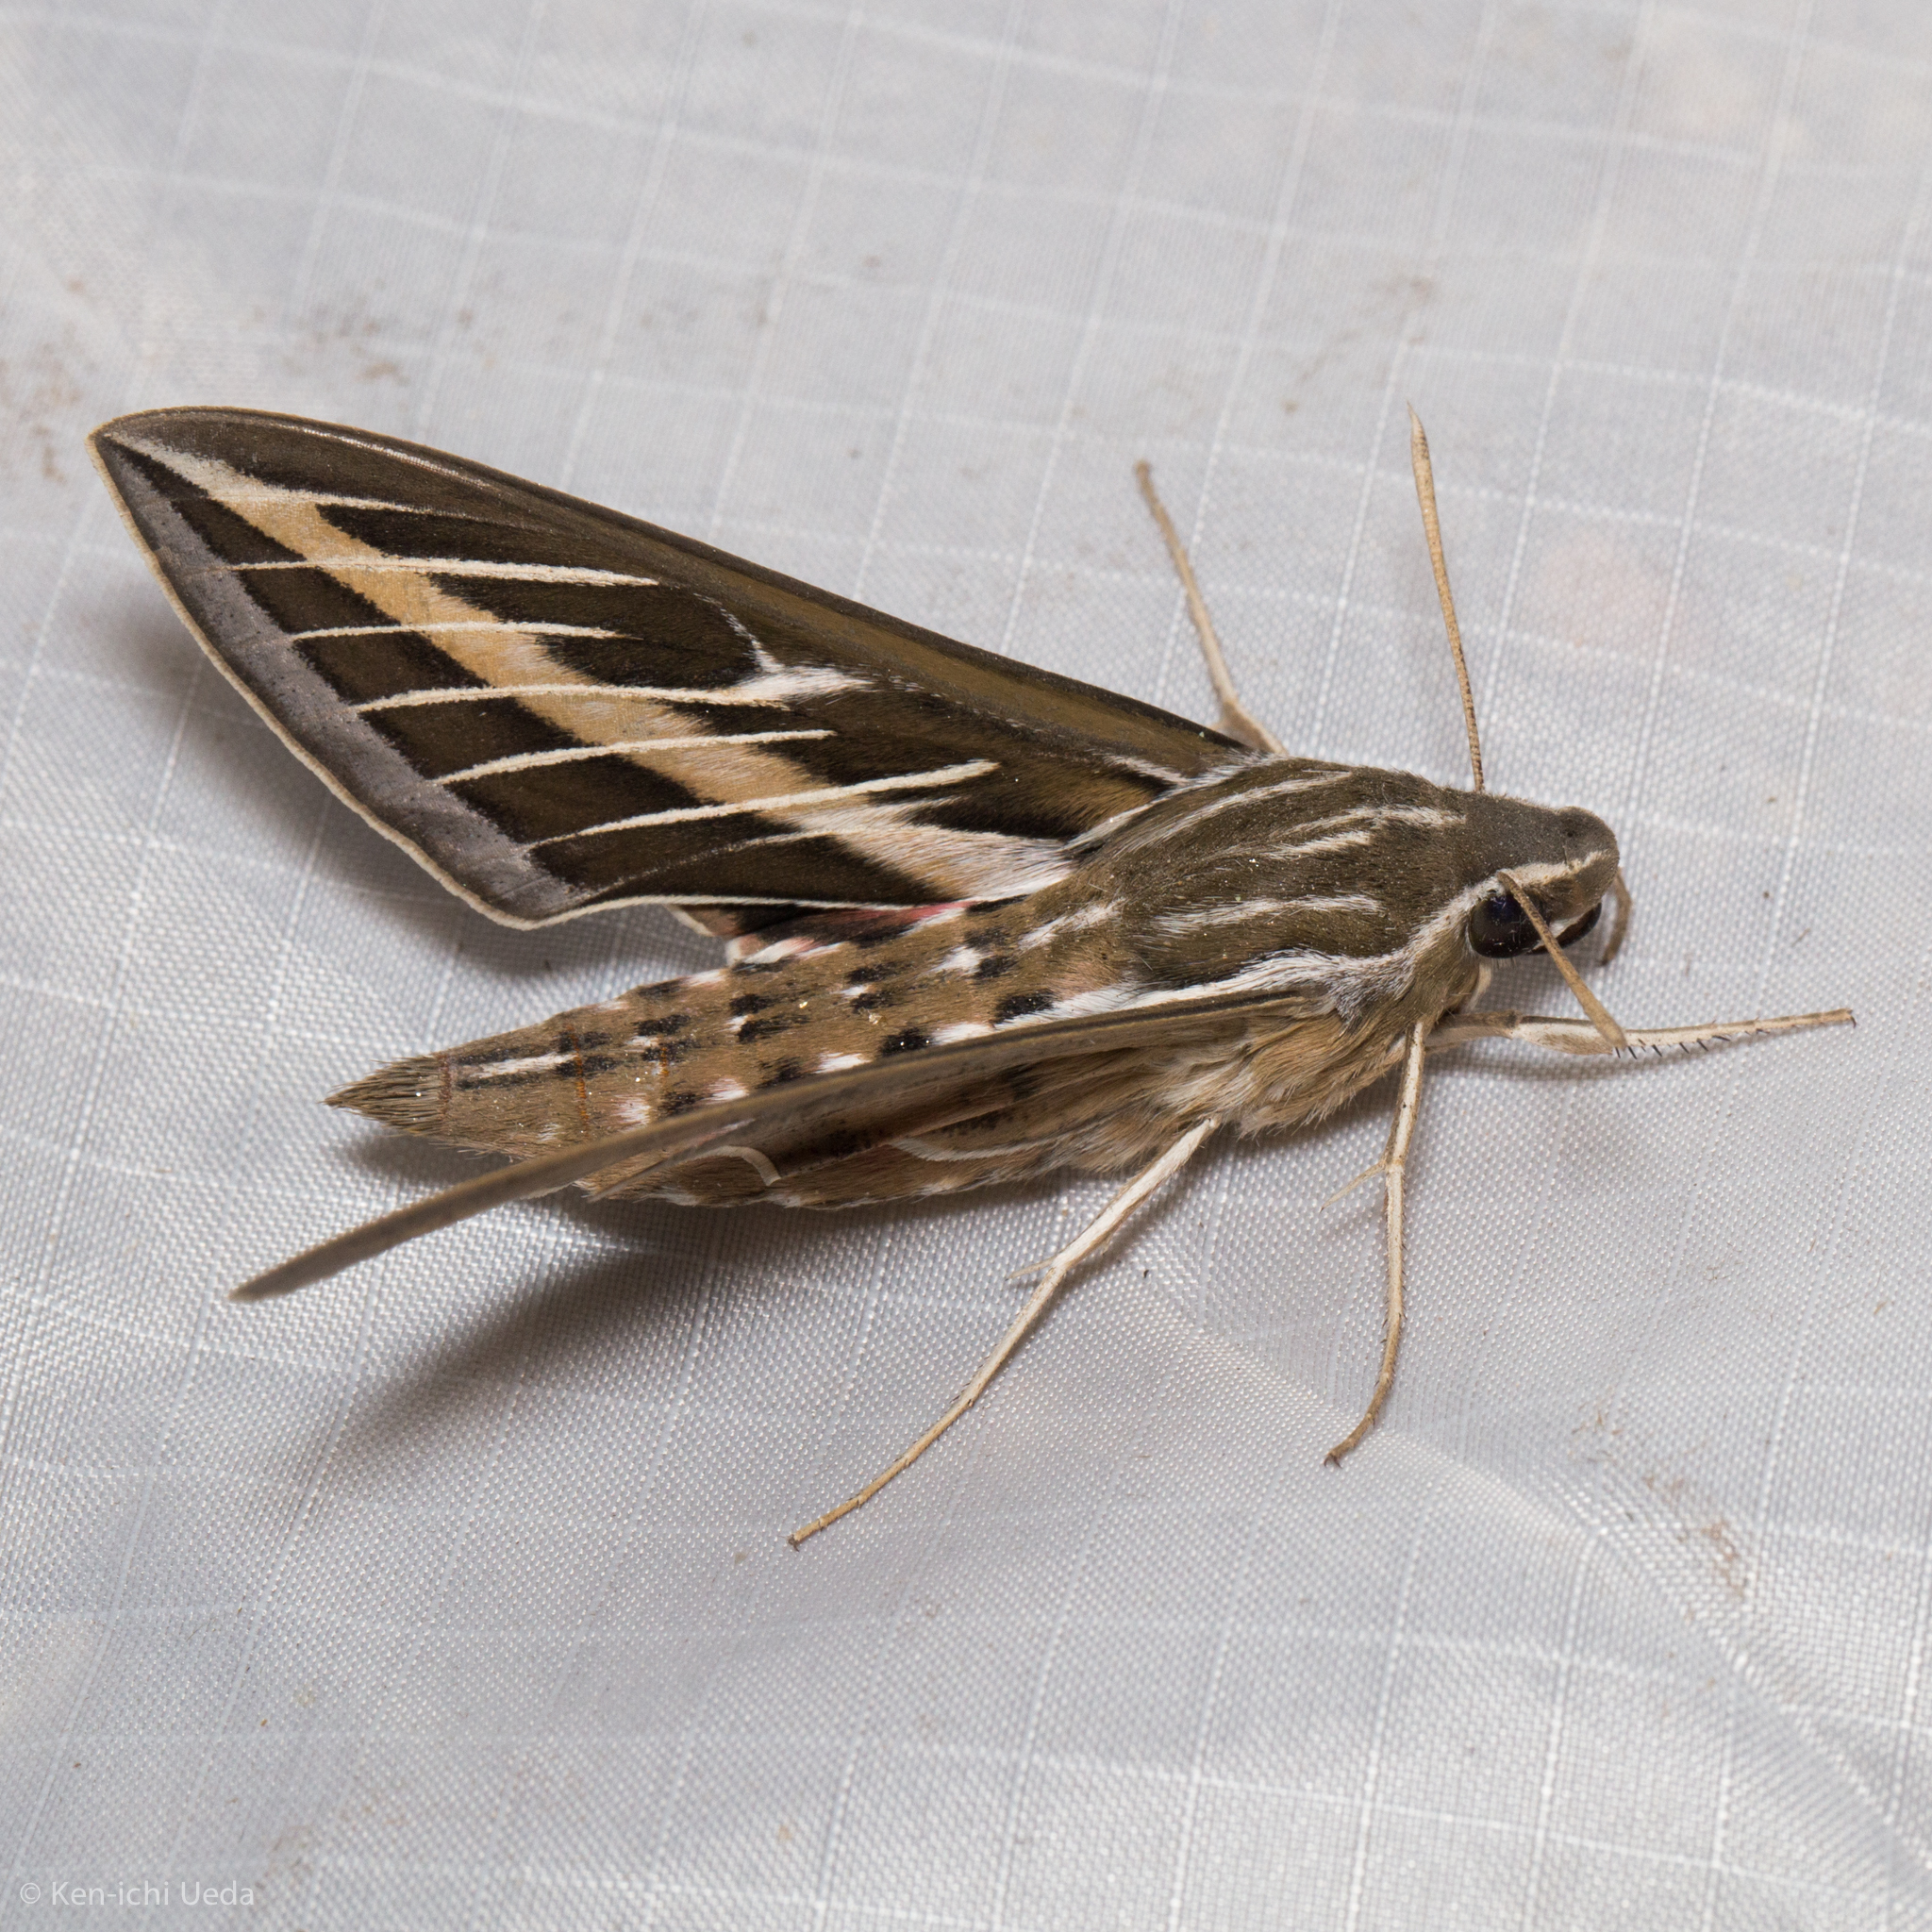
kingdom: Animalia
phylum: Arthropoda
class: Insecta
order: Lepidoptera
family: Sphingidae
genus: Hyles
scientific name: Hyles lineata
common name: White-lined sphinx
